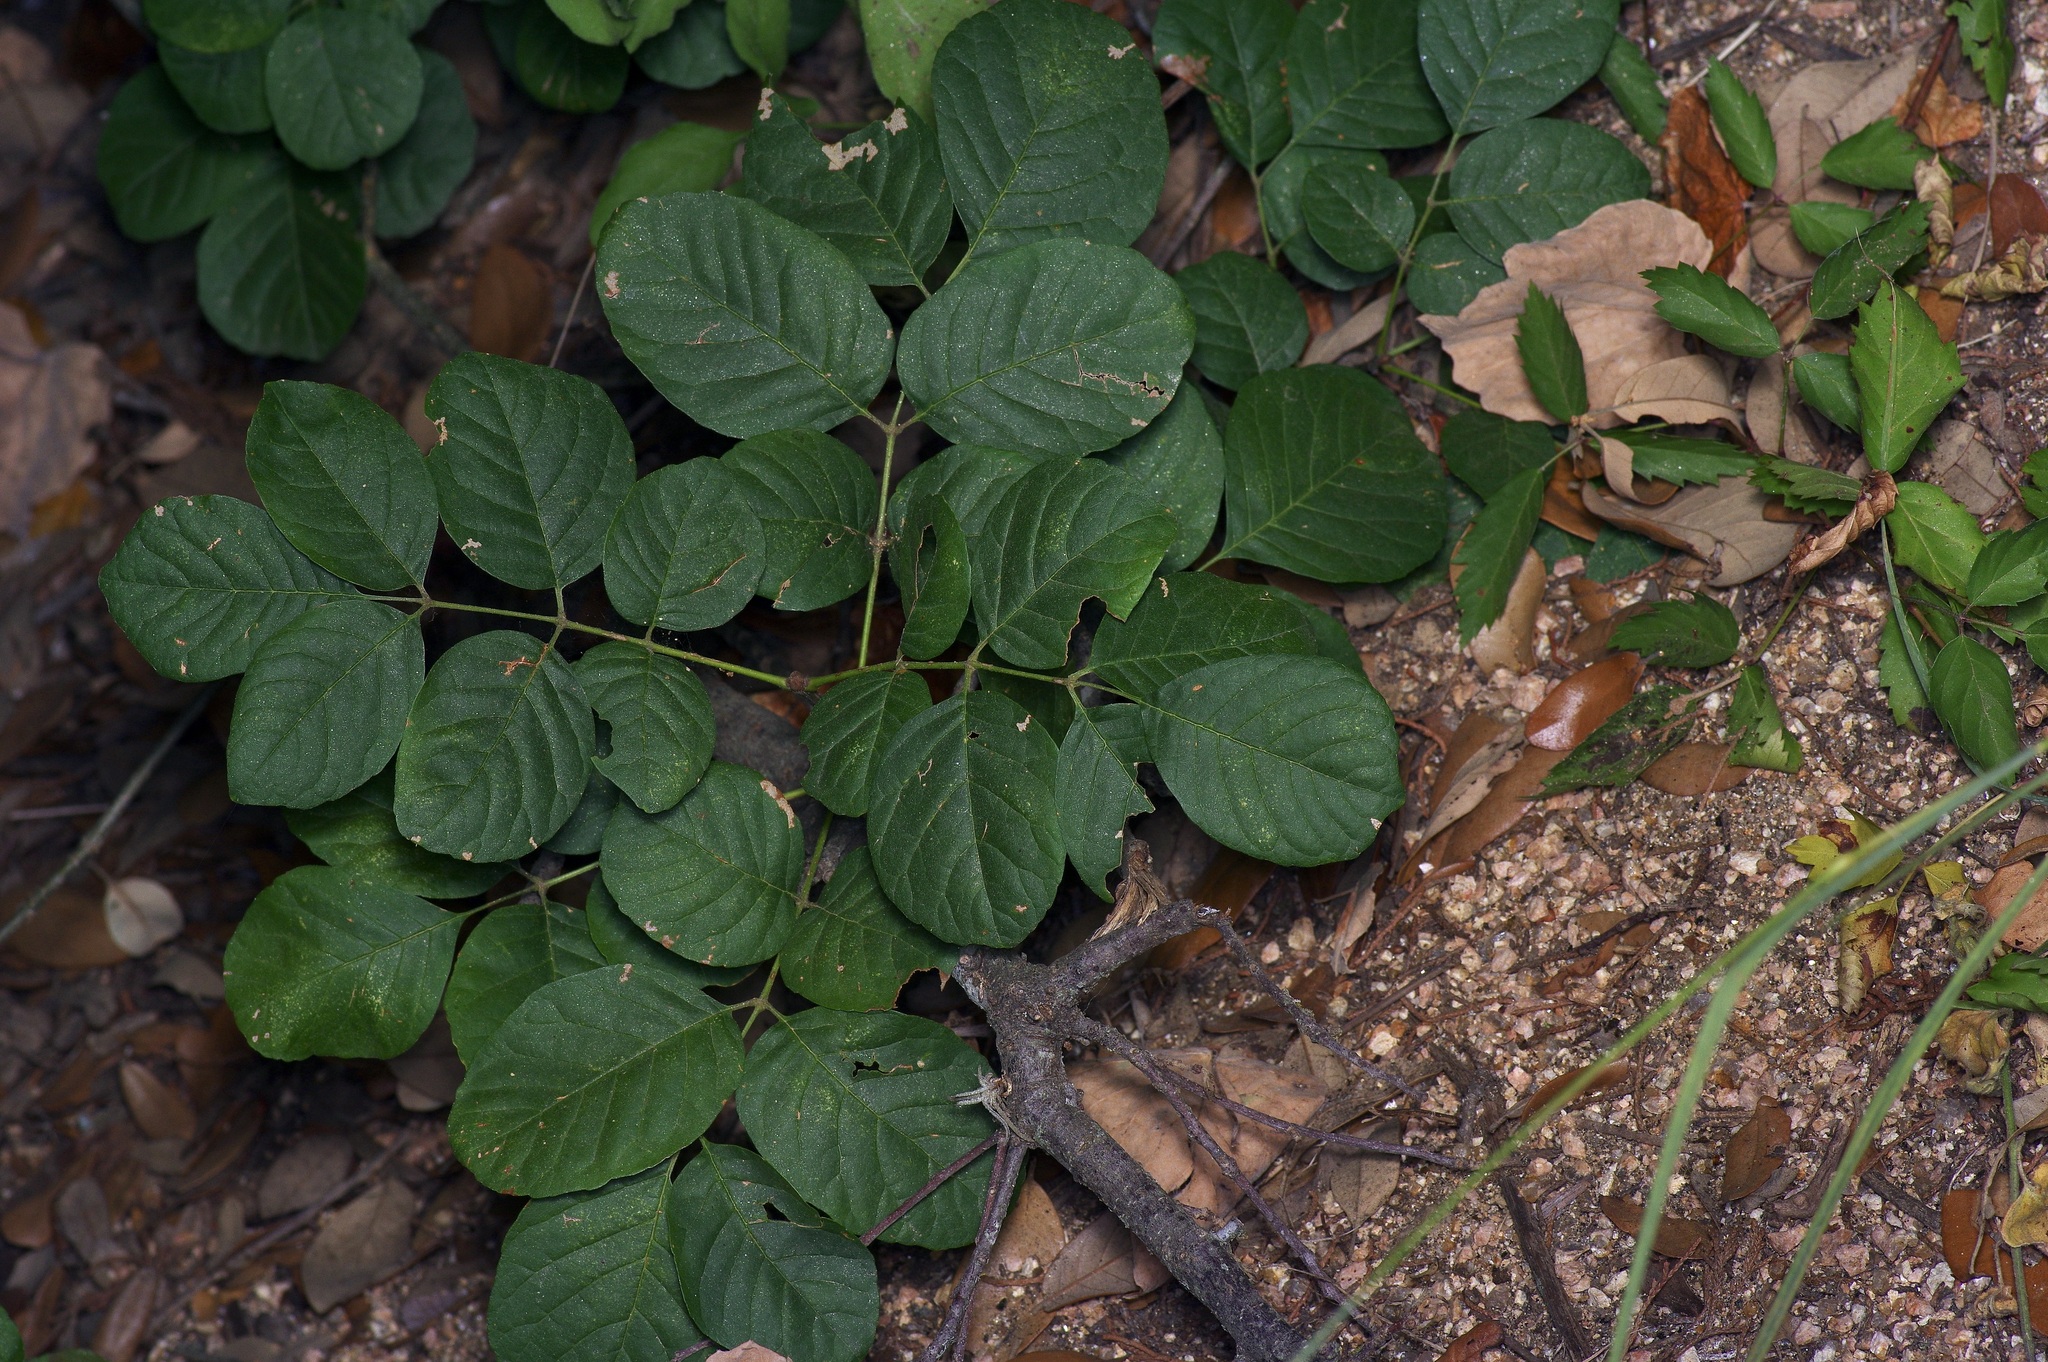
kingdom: Plantae
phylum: Tracheophyta
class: Magnoliopsida
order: Lamiales
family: Oleaceae
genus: Fraxinus
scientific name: Fraxinus albicans
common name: Texas ash
